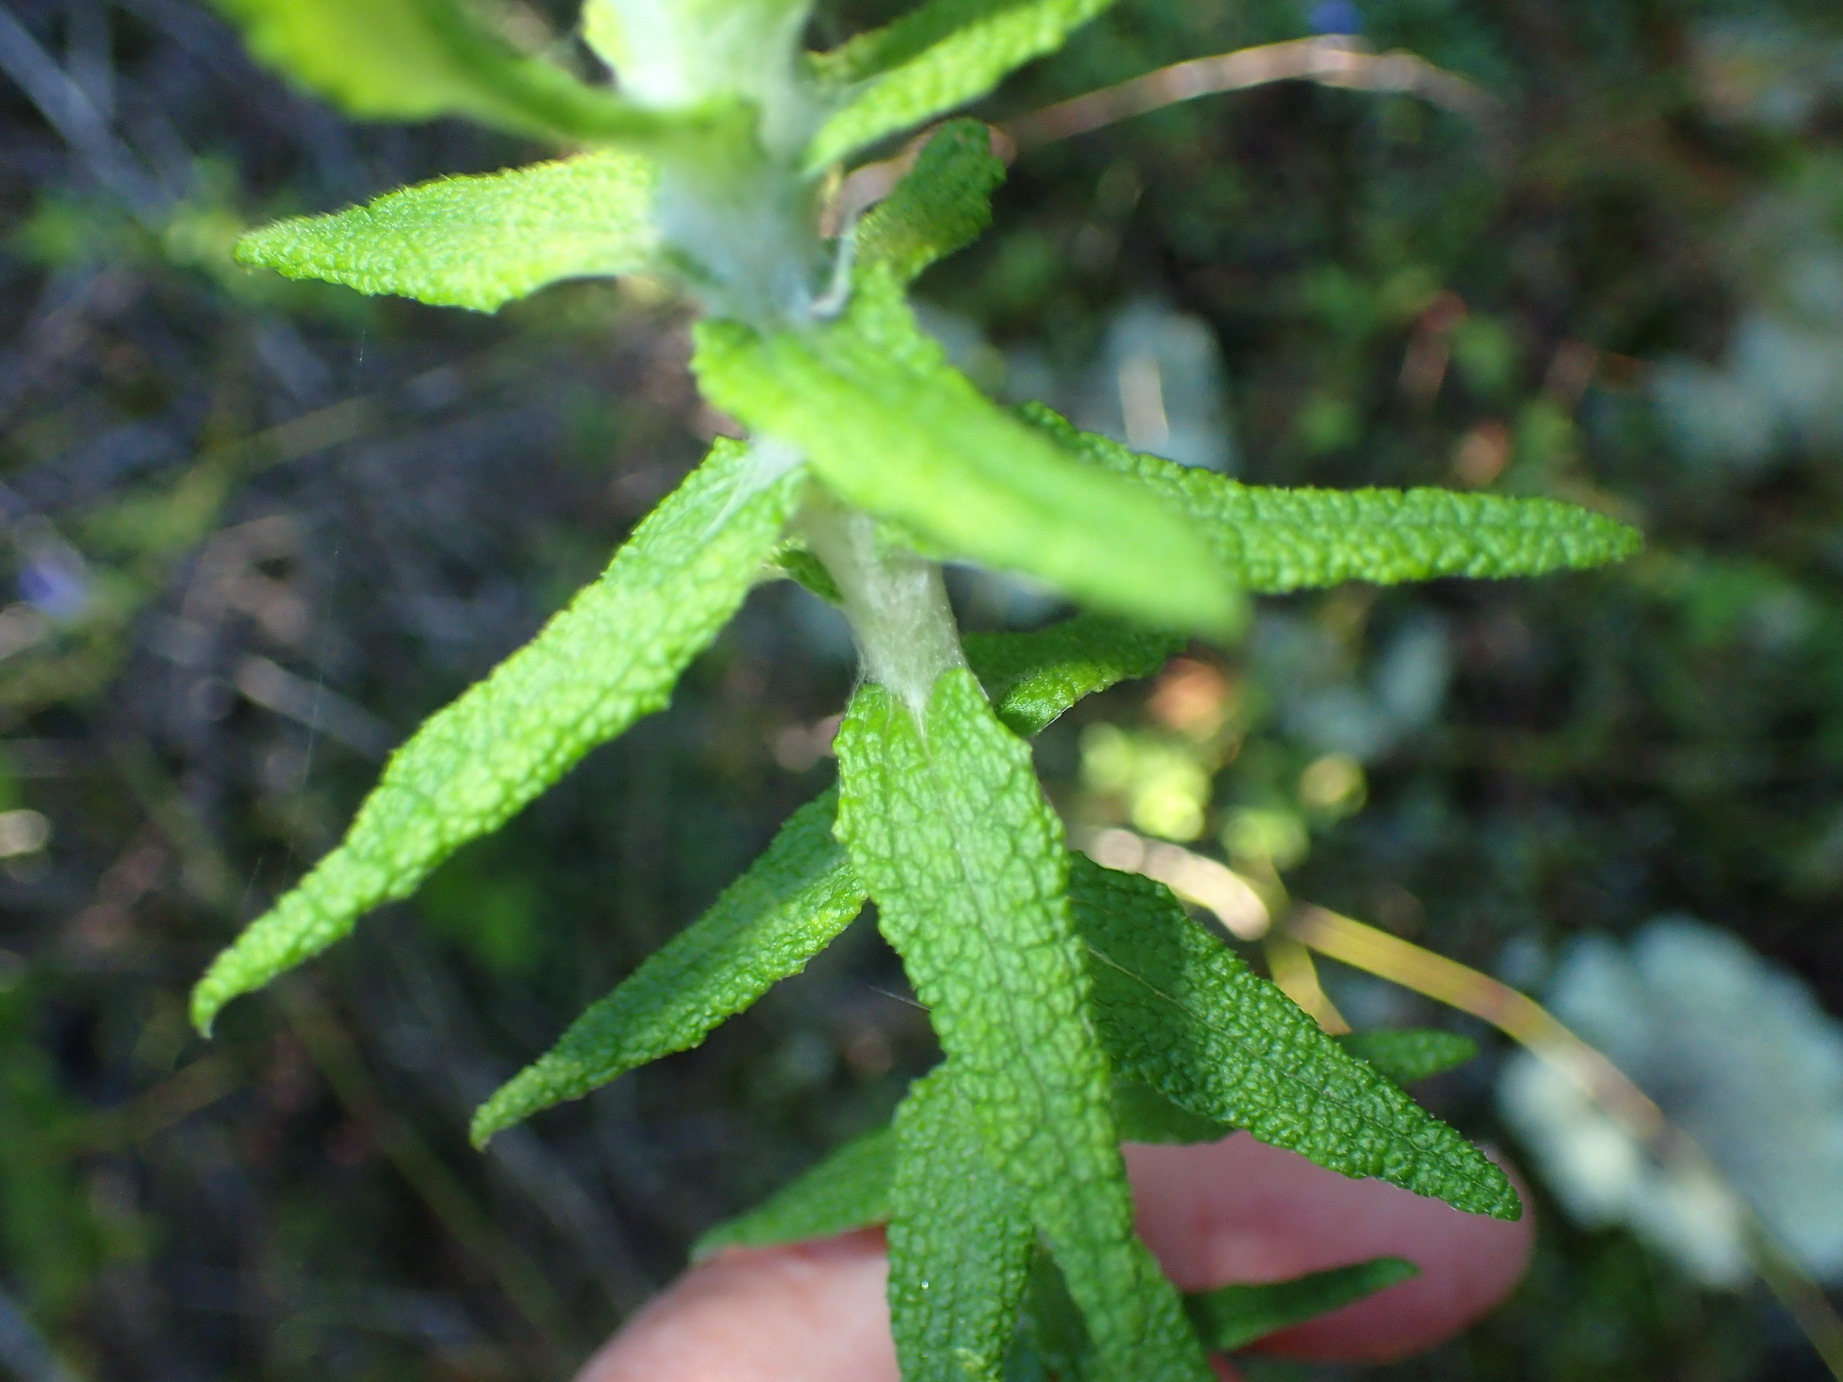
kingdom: Plantae
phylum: Tracheophyta
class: Magnoliopsida
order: Asterales
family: Asteraceae
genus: Helichrysum
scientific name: Helichrysum felinum
